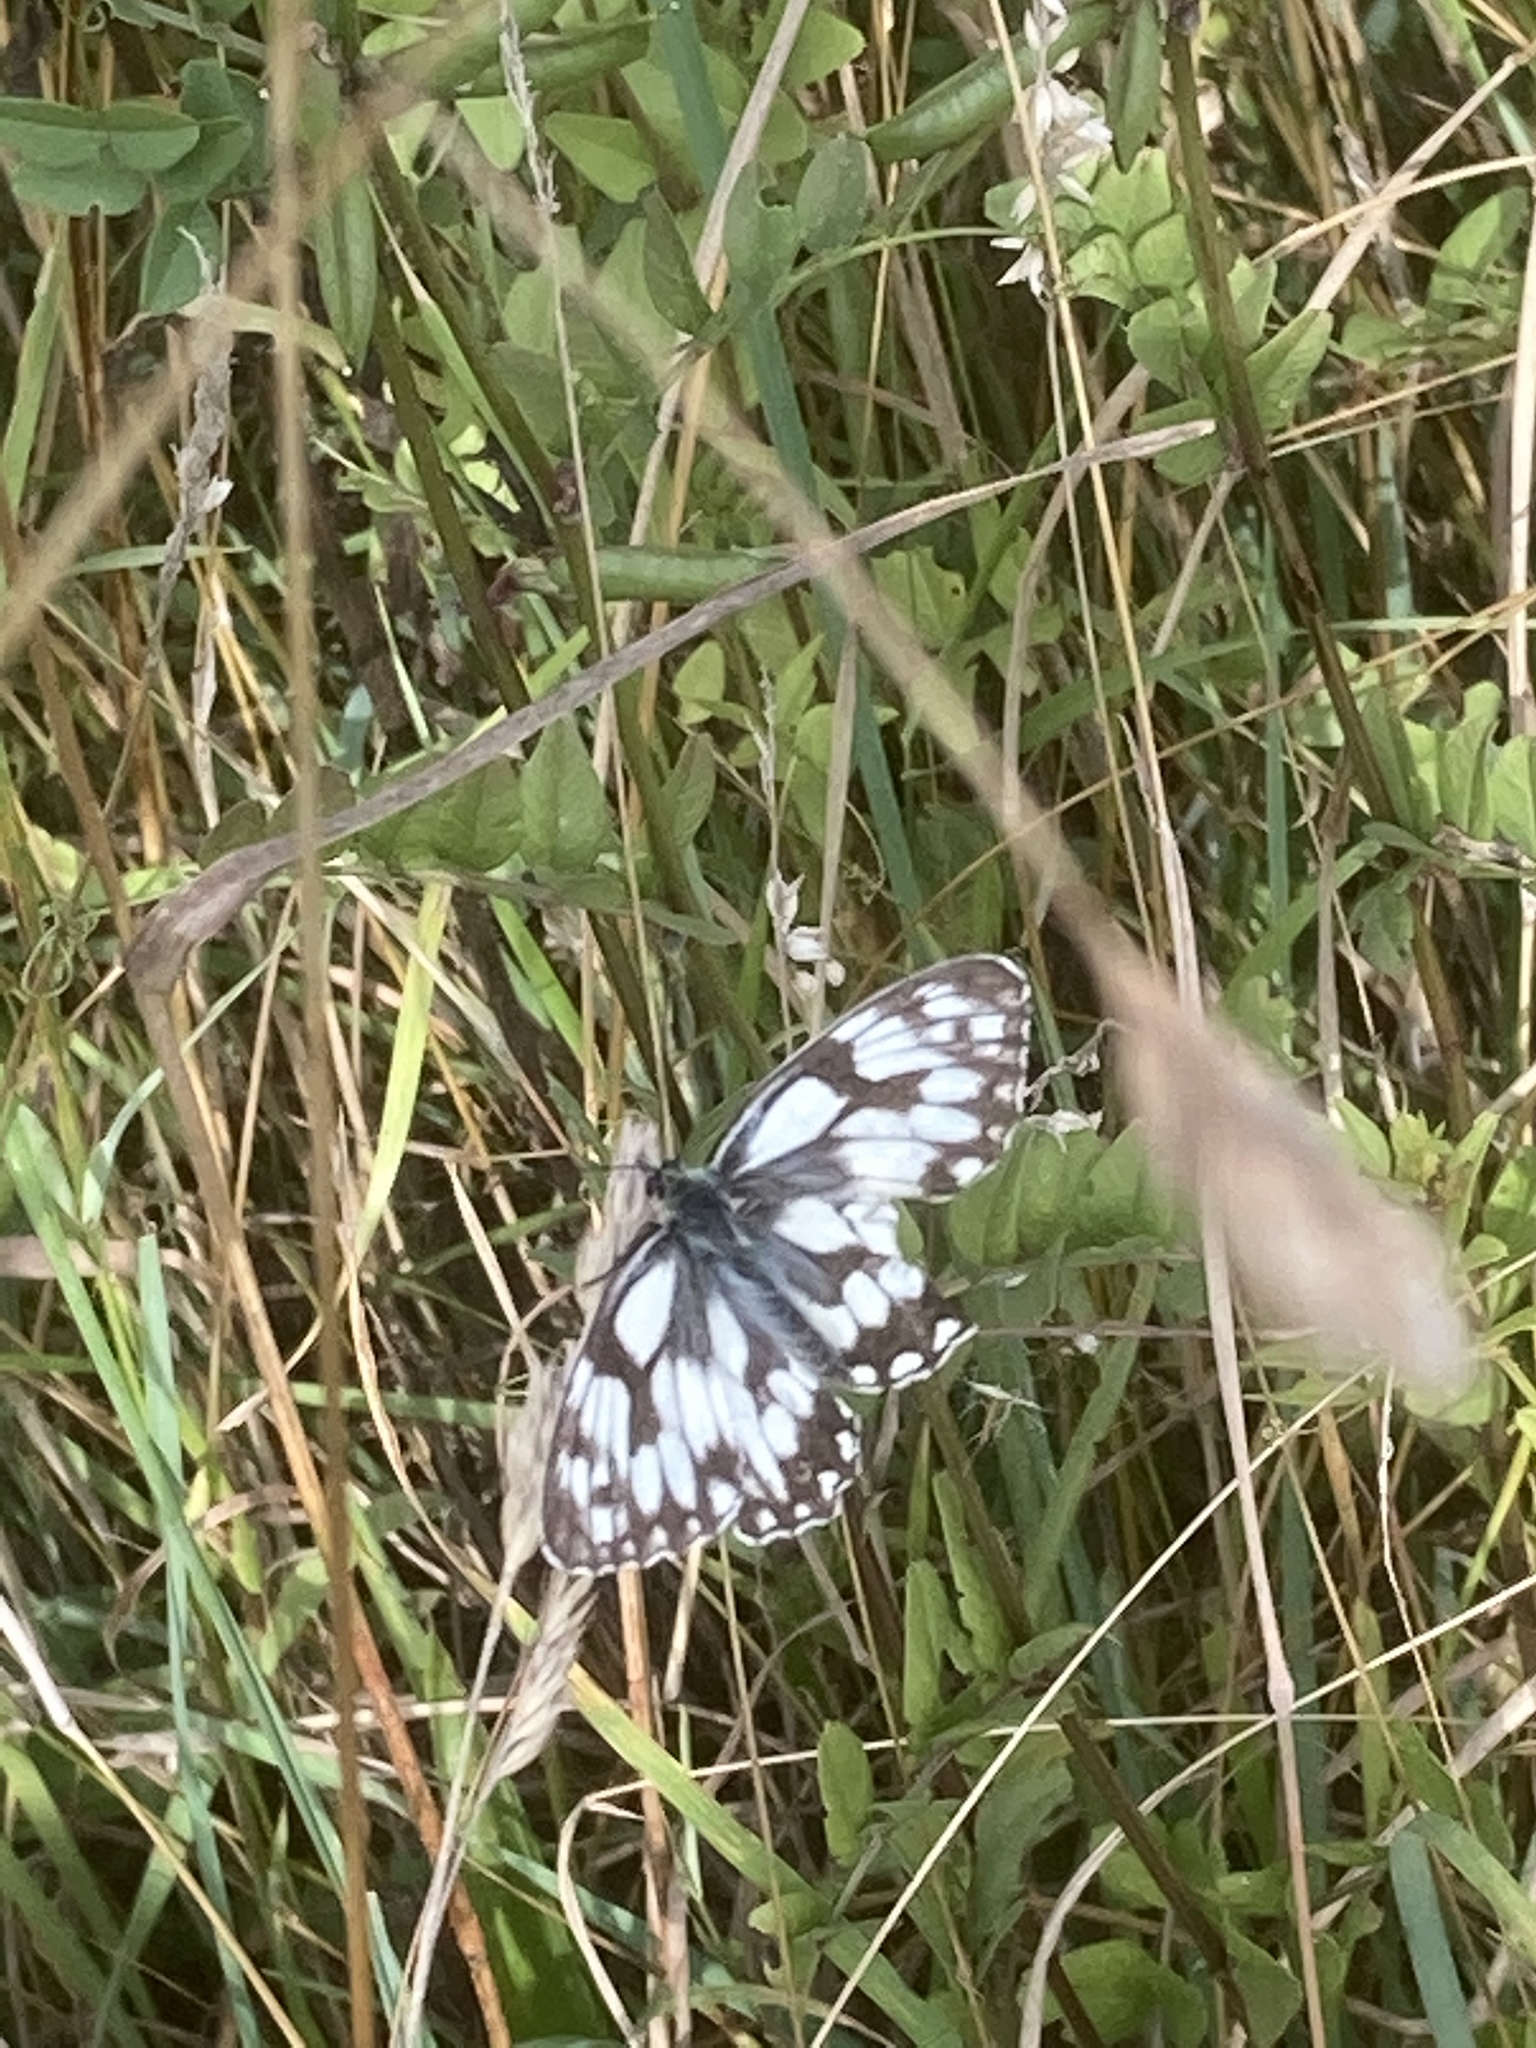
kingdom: Animalia
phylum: Arthropoda
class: Insecta
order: Lepidoptera
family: Nymphalidae
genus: Melanargia
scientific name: Melanargia galathea
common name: Marbled white
